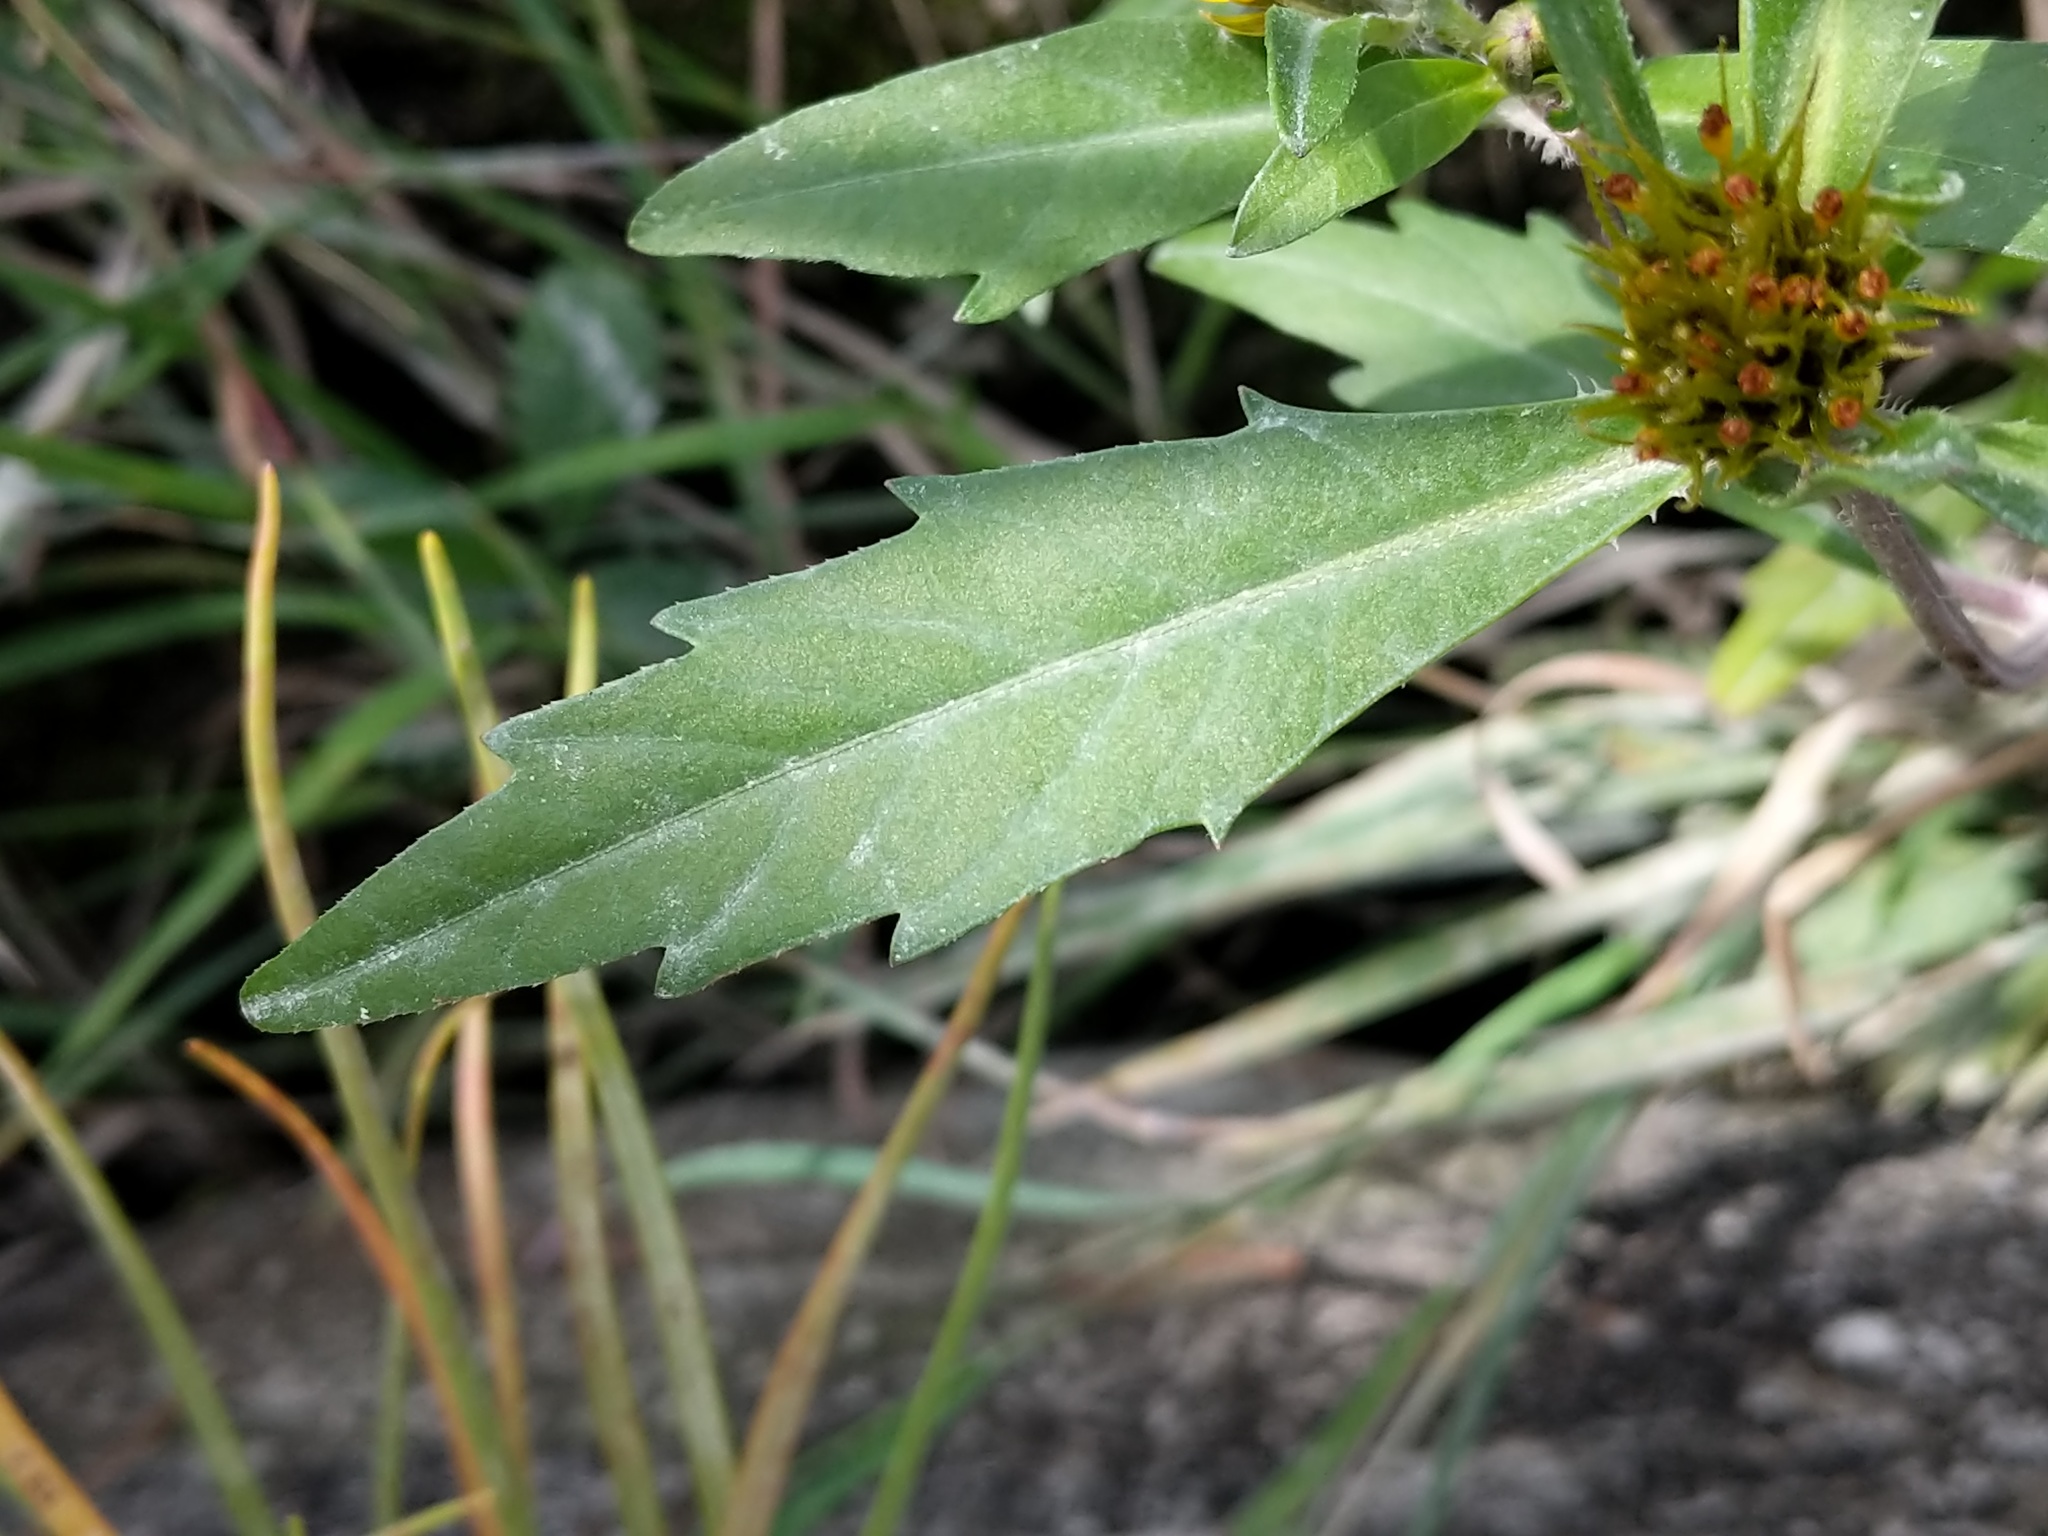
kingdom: Plantae
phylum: Tracheophyta
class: Magnoliopsida
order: Asterales
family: Asteraceae
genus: Bidens
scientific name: Bidens amplissima
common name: Vancouver island beggarticks
